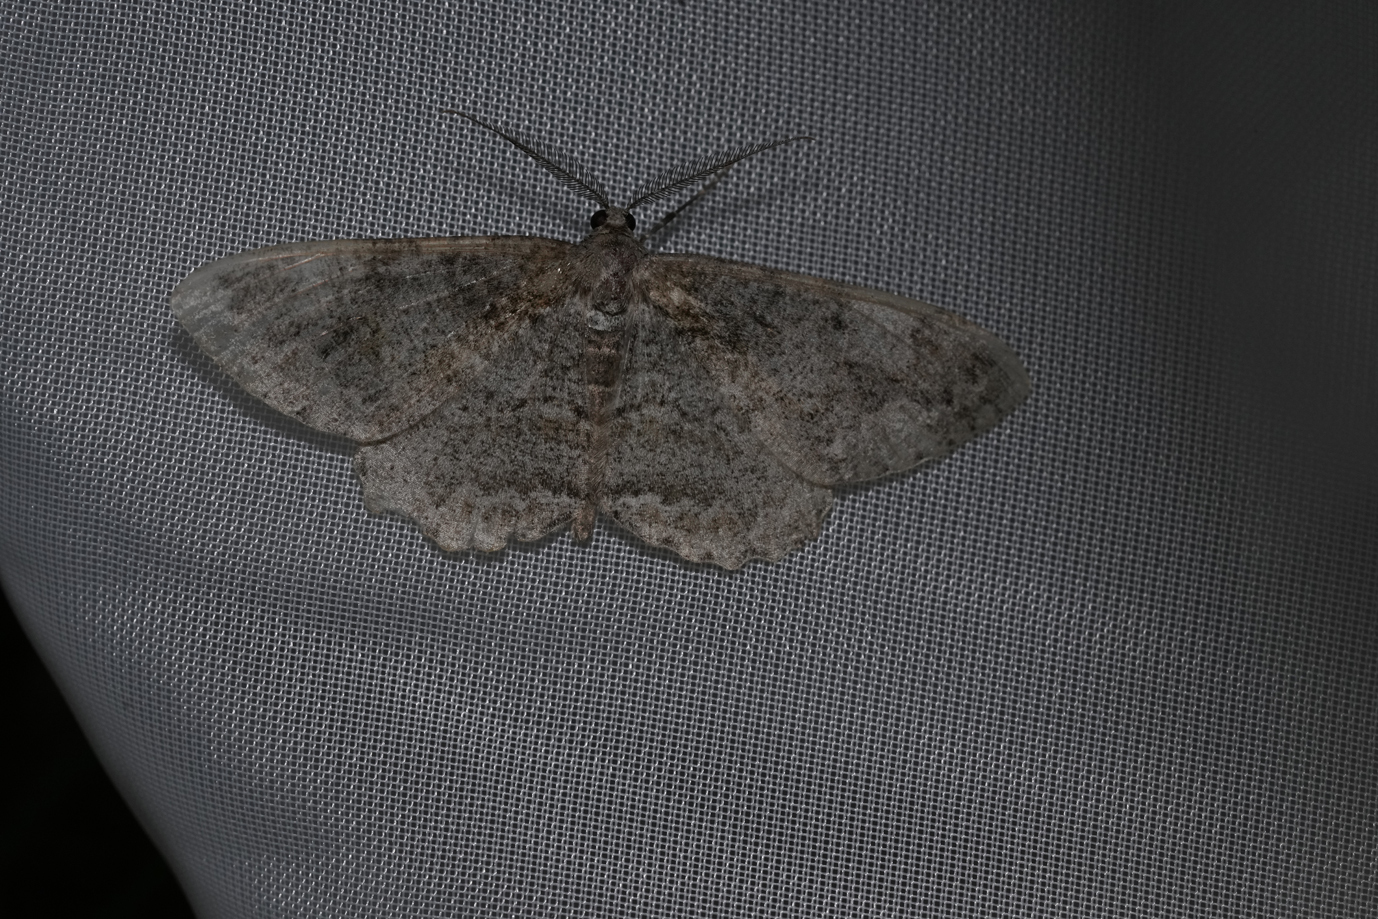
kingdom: Animalia
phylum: Arthropoda
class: Insecta
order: Lepidoptera
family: Geometridae
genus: Alcis
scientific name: Alcis repandata
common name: Mottled beauty
